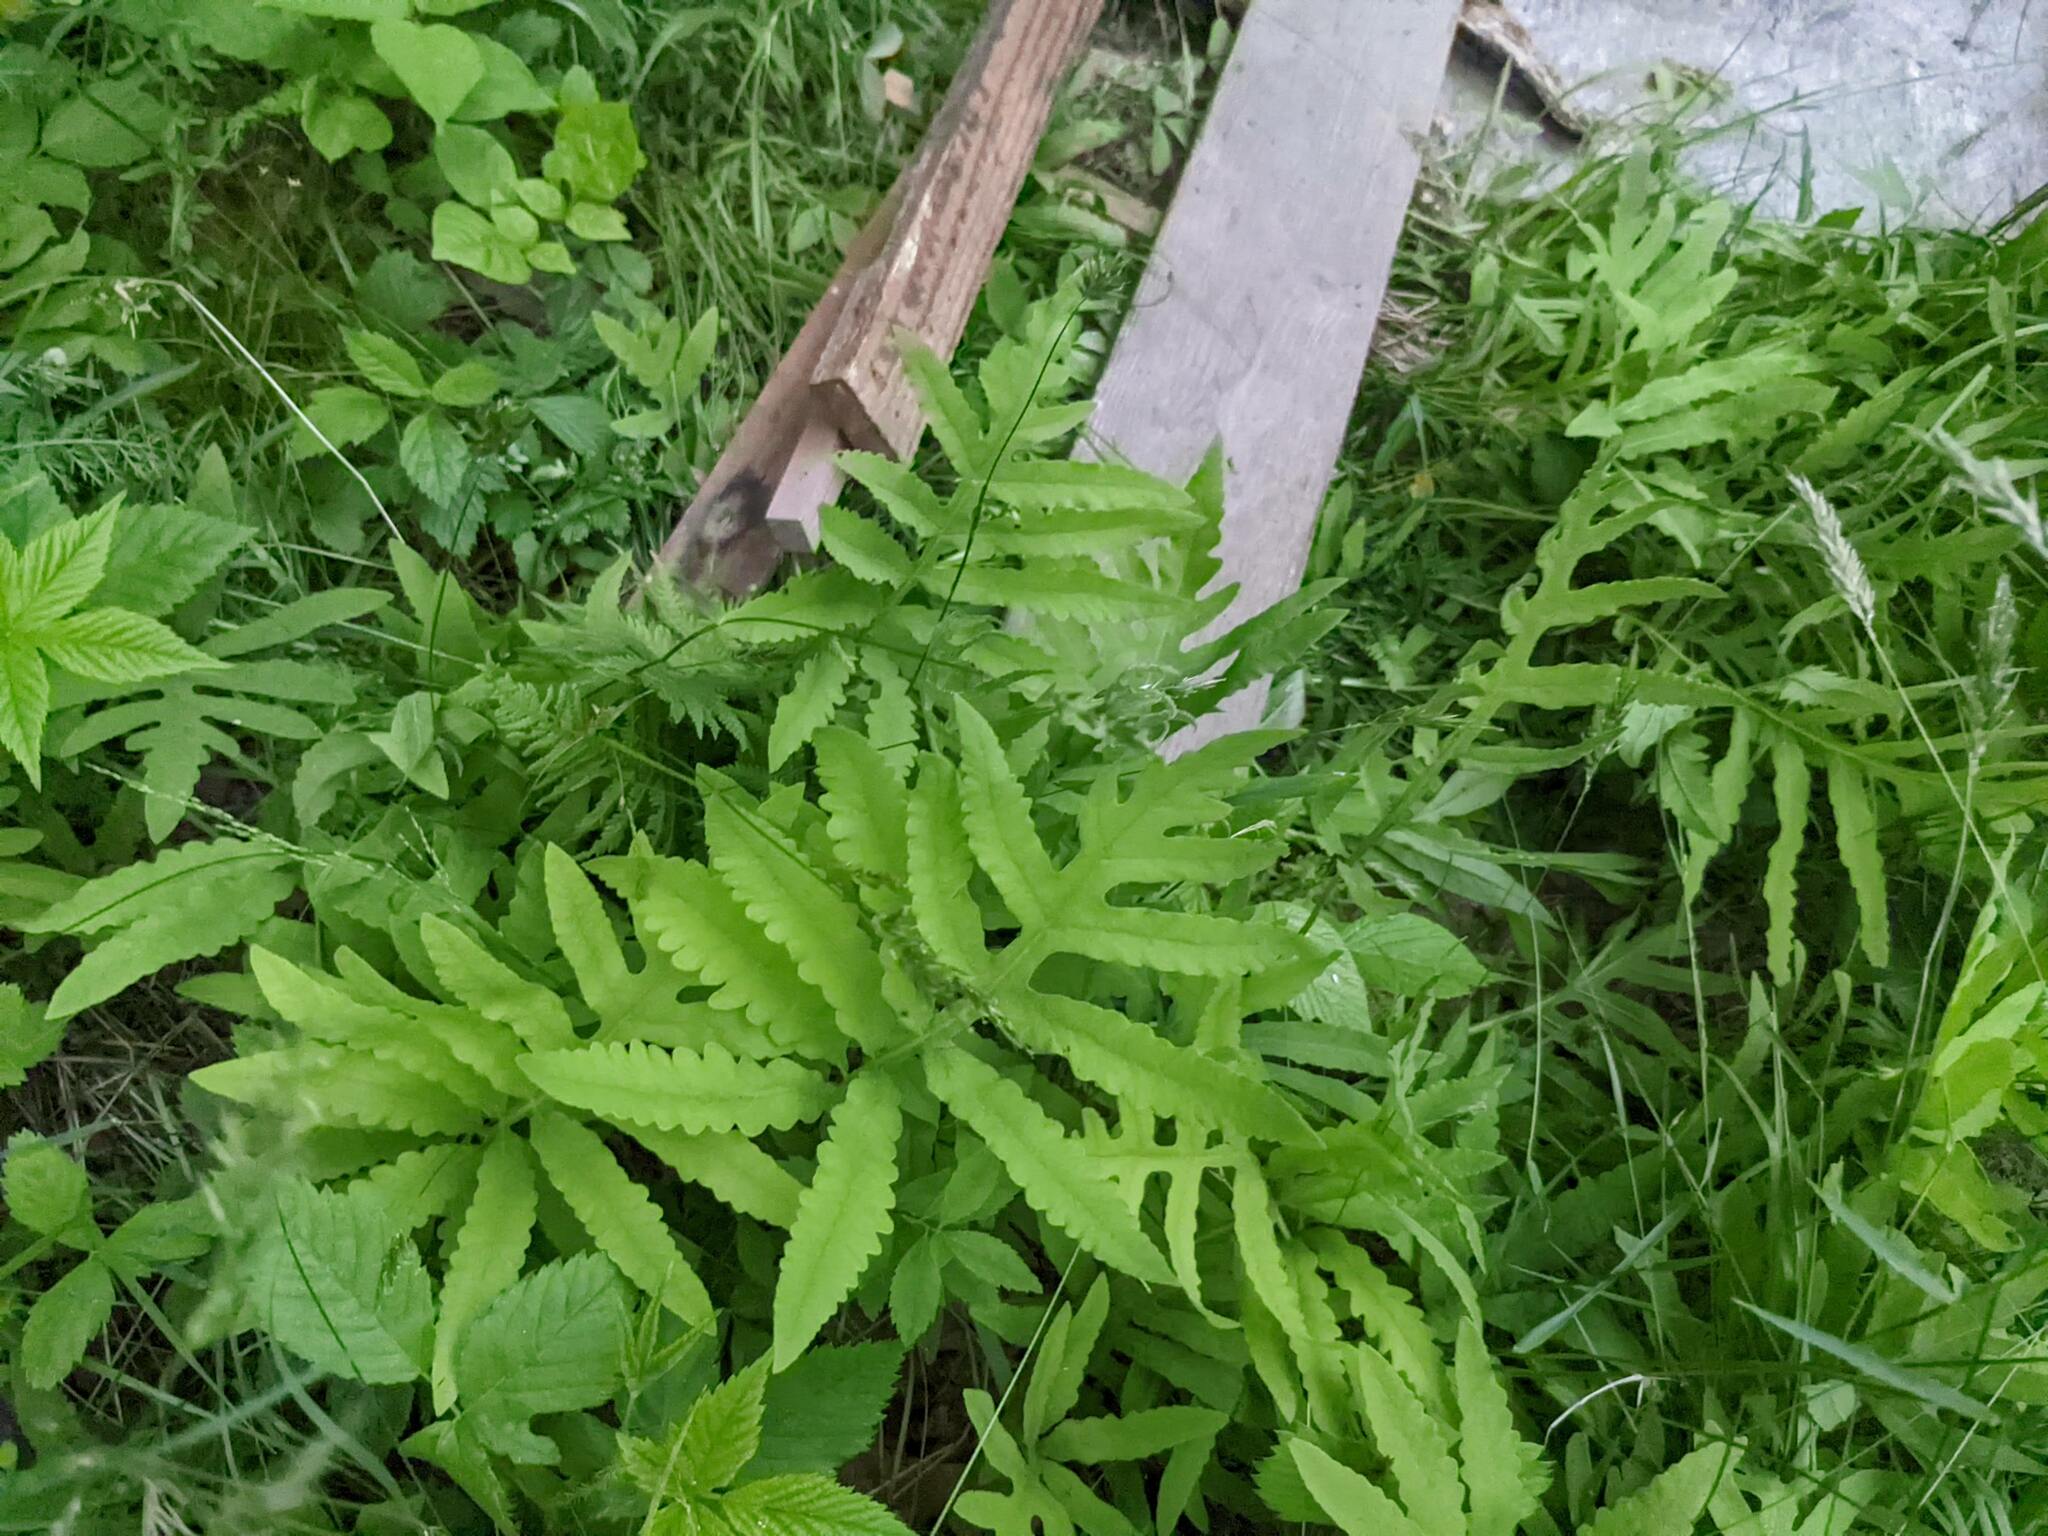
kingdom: Plantae
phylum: Tracheophyta
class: Polypodiopsida
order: Polypodiales
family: Onocleaceae
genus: Onoclea
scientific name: Onoclea sensibilis
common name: Sensitive fern
